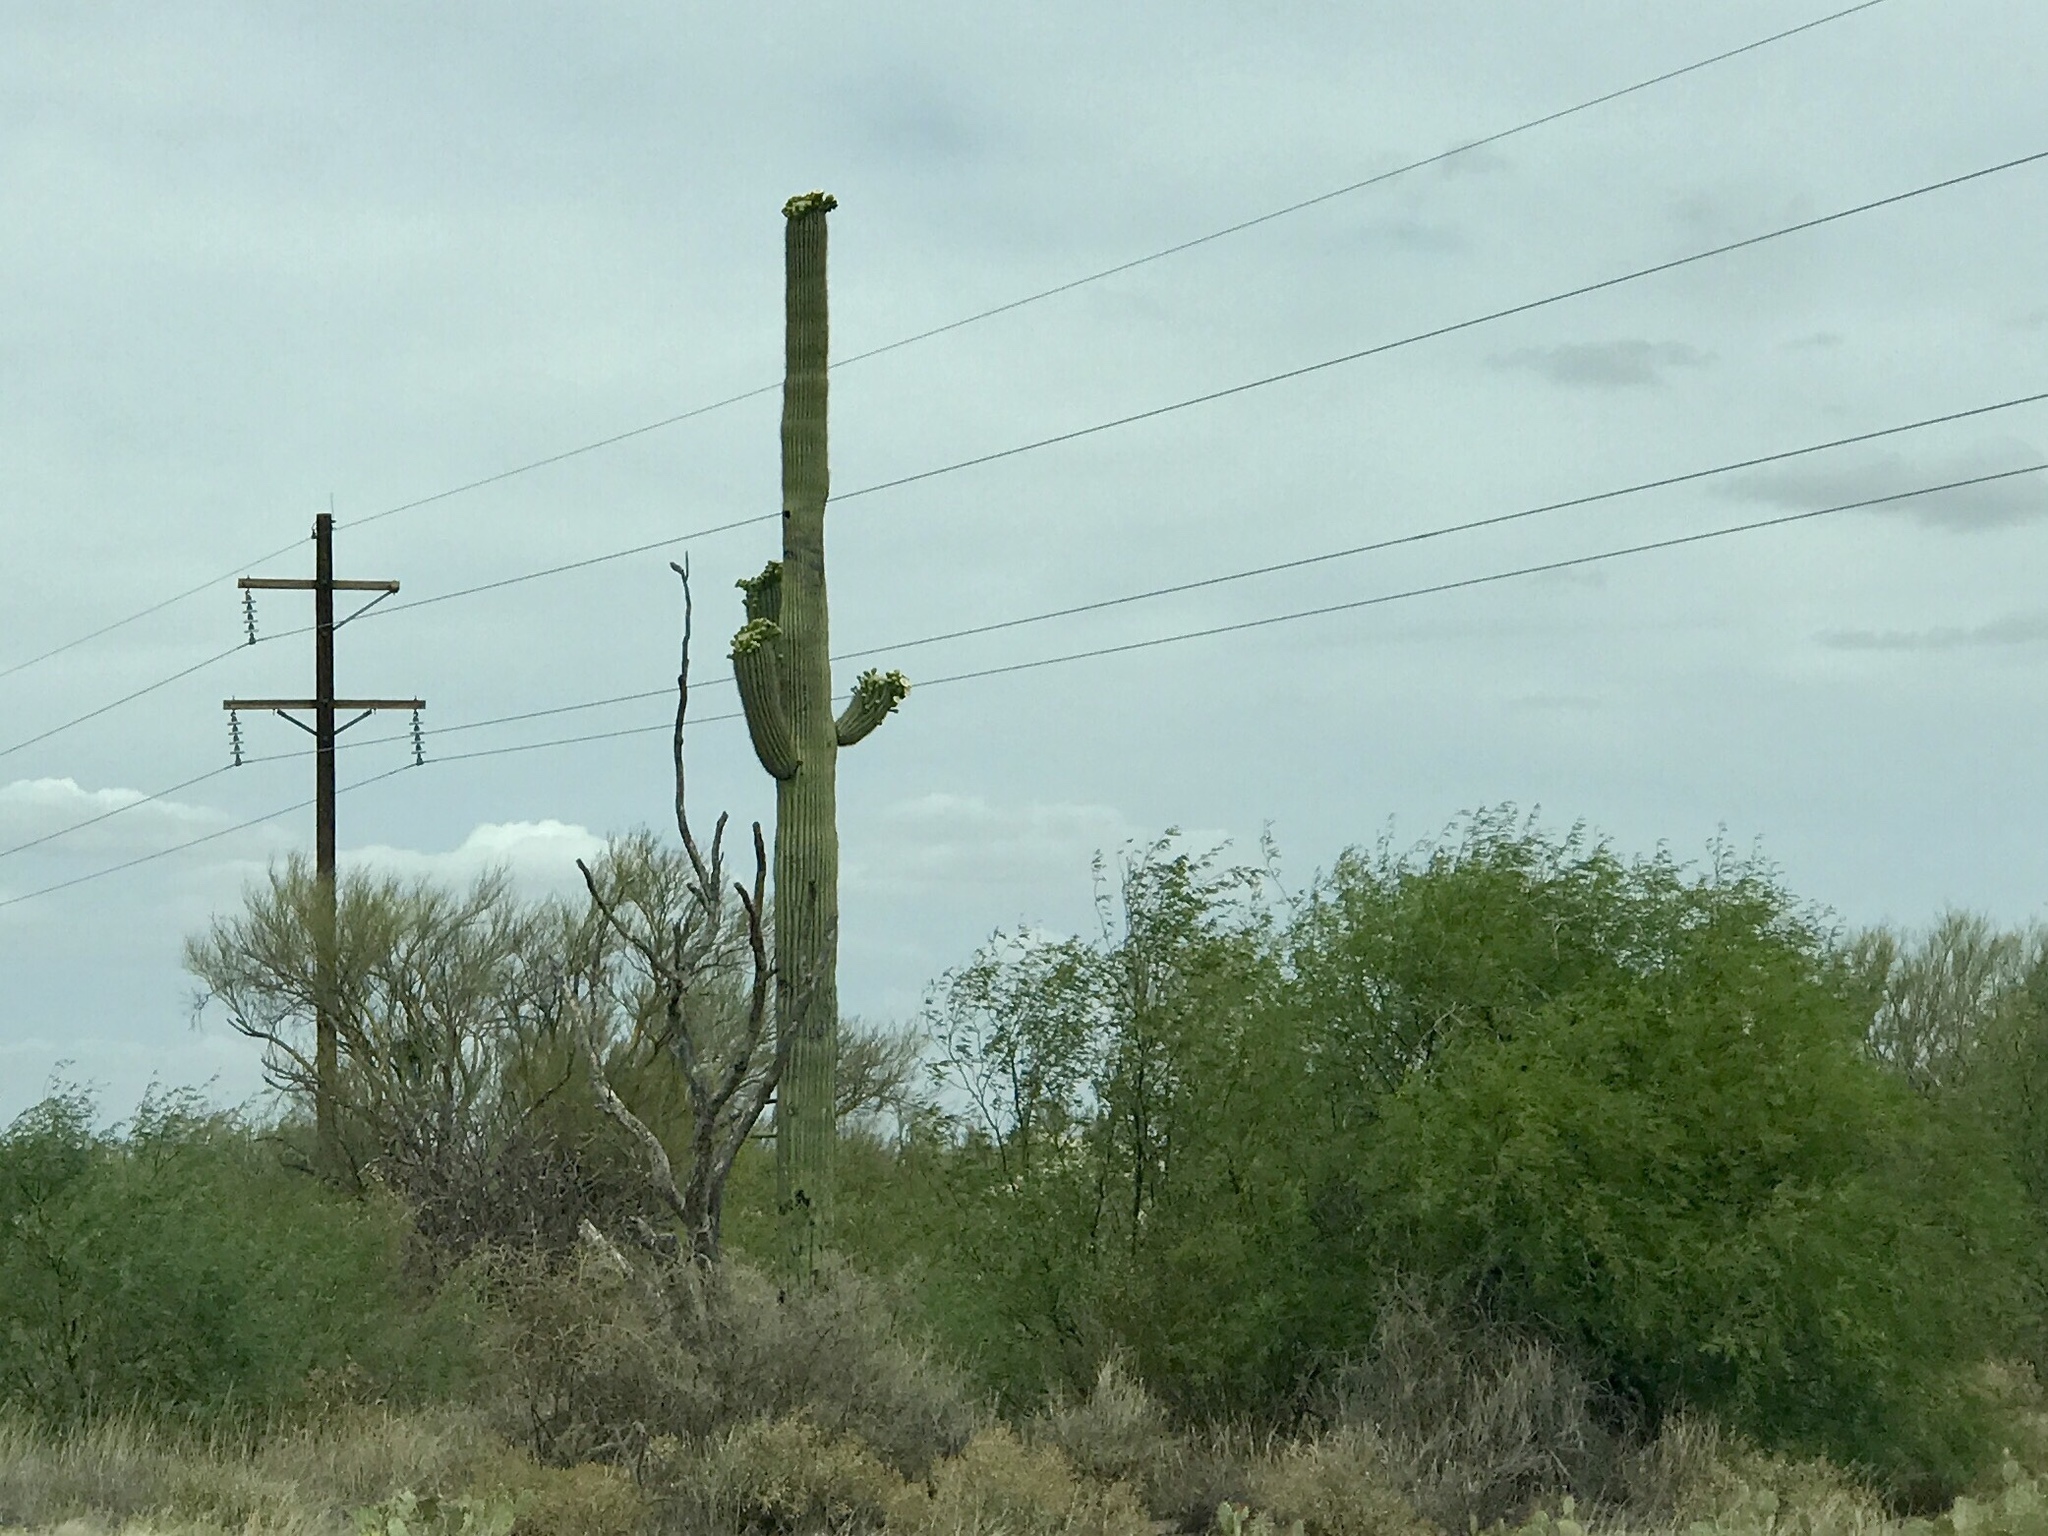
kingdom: Plantae
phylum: Tracheophyta
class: Magnoliopsida
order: Caryophyllales
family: Cactaceae
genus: Carnegiea
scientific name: Carnegiea gigantea
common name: Saguaro
